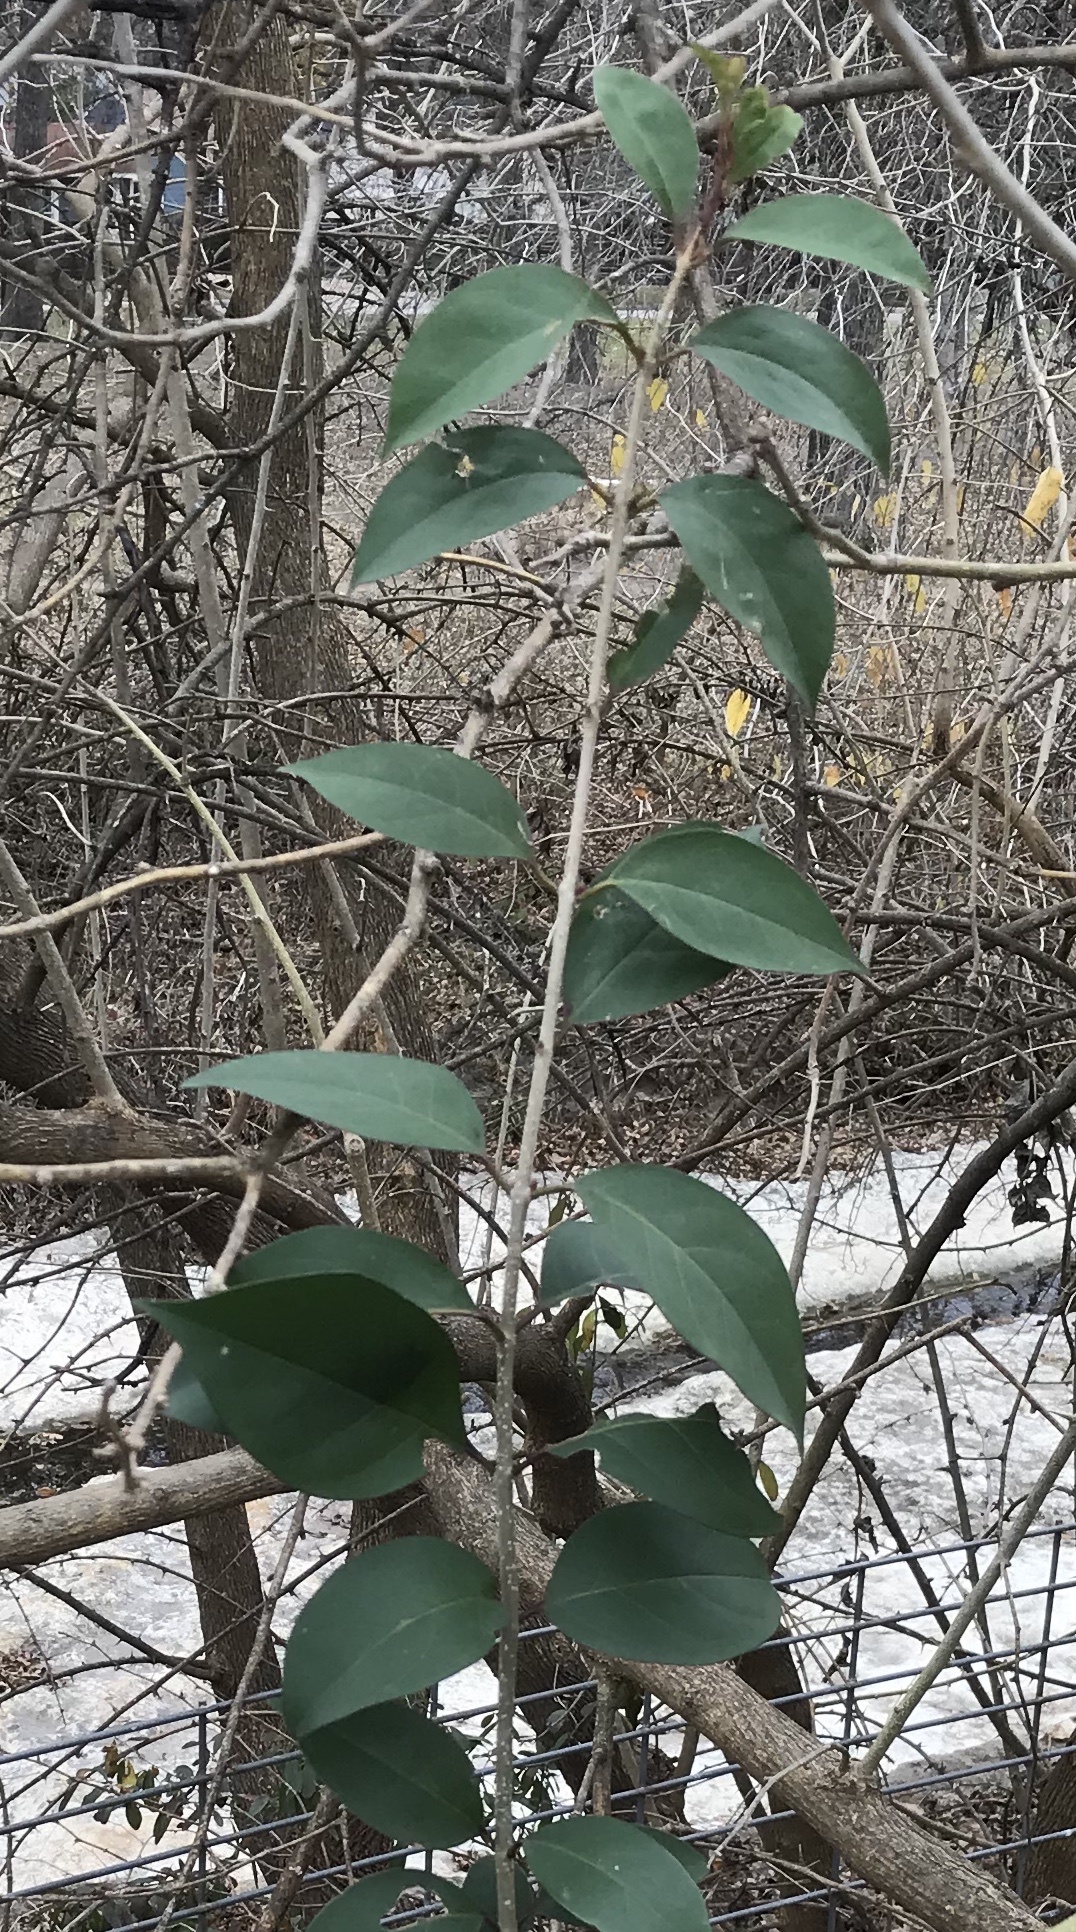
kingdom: Plantae
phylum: Tracheophyta
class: Magnoliopsida
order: Lamiales
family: Oleaceae
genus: Ligustrum
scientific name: Ligustrum lucidum
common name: Glossy privet
